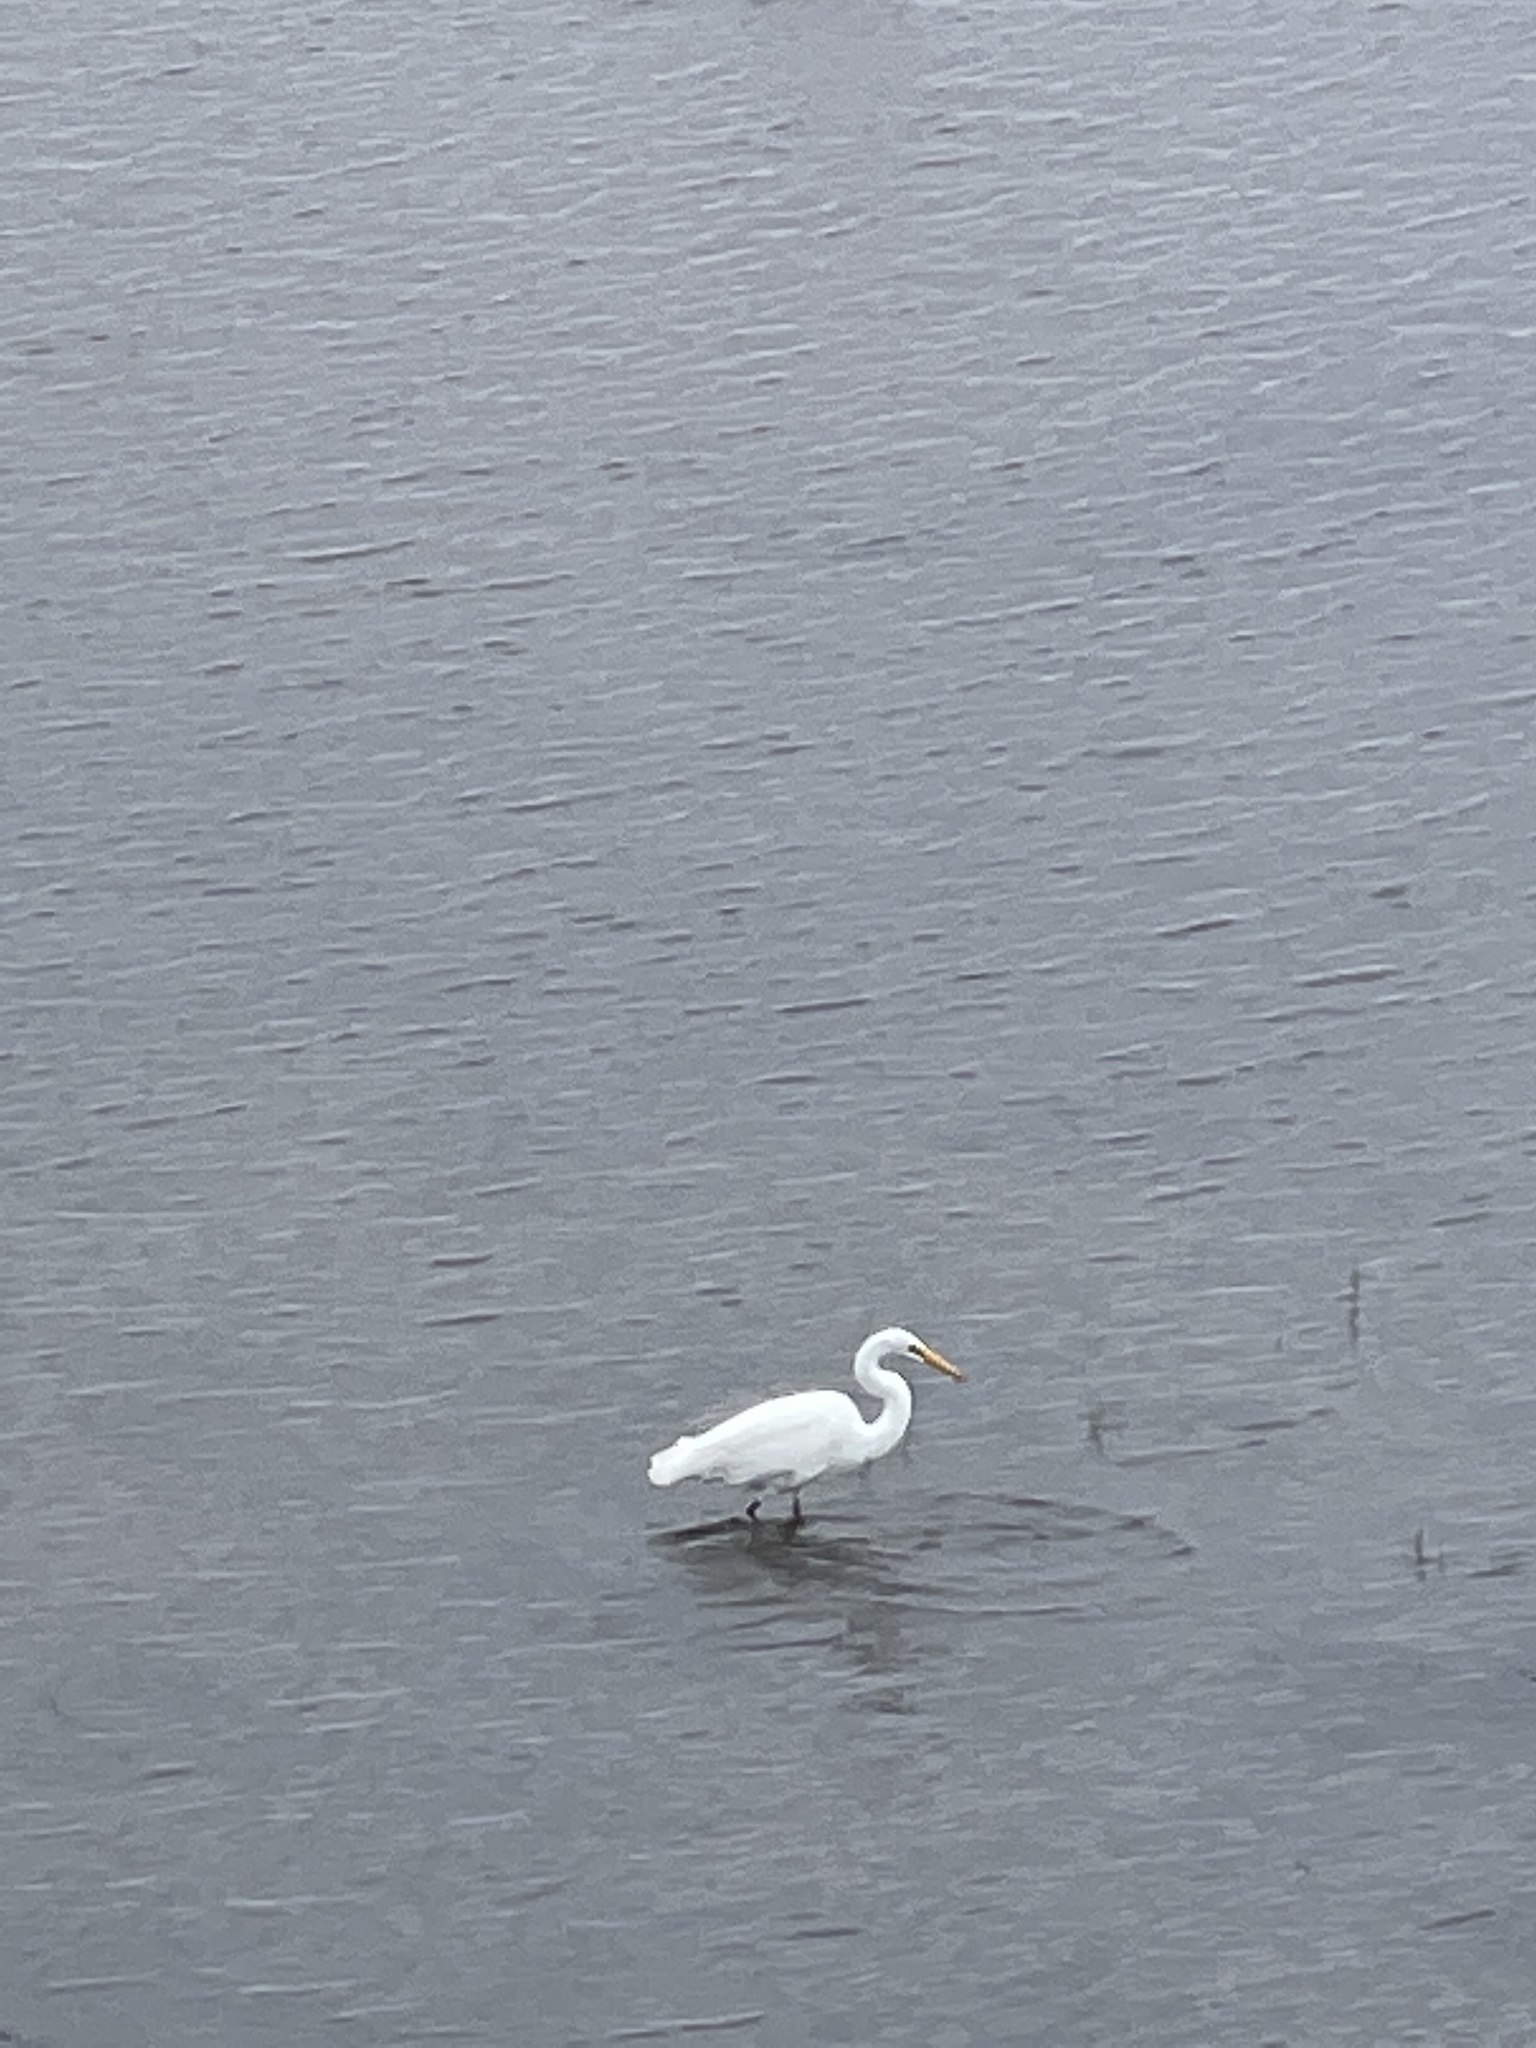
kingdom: Animalia
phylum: Chordata
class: Aves
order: Pelecaniformes
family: Ardeidae
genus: Ardea
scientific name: Ardea alba
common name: Great egret
